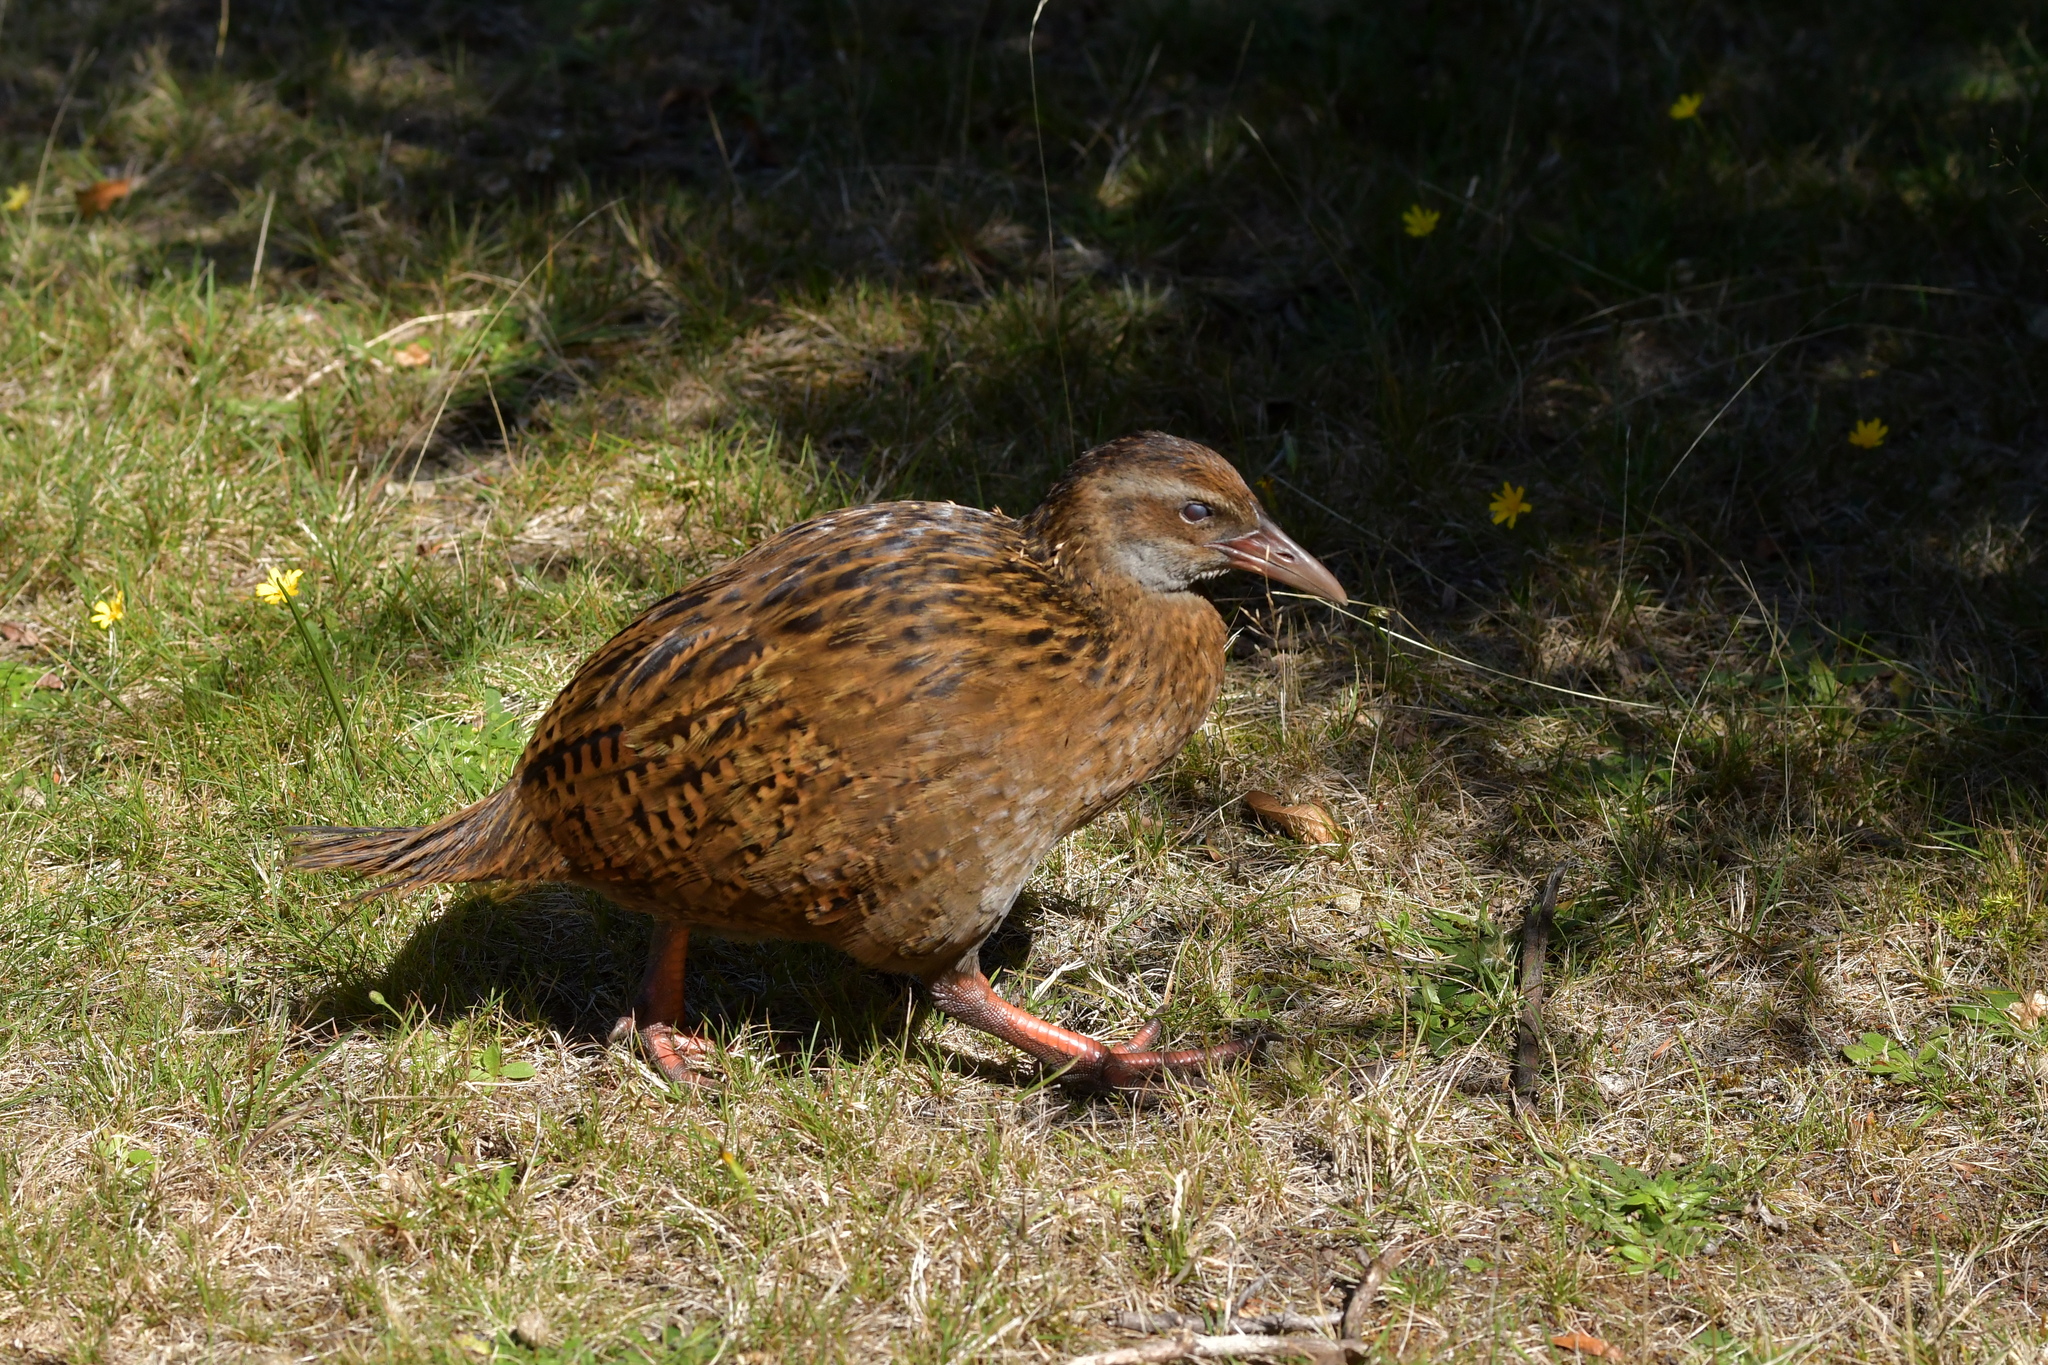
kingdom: Animalia
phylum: Chordata
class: Aves
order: Gruiformes
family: Rallidae
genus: Gallirallus
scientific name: Gallirallus australis
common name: Weka
